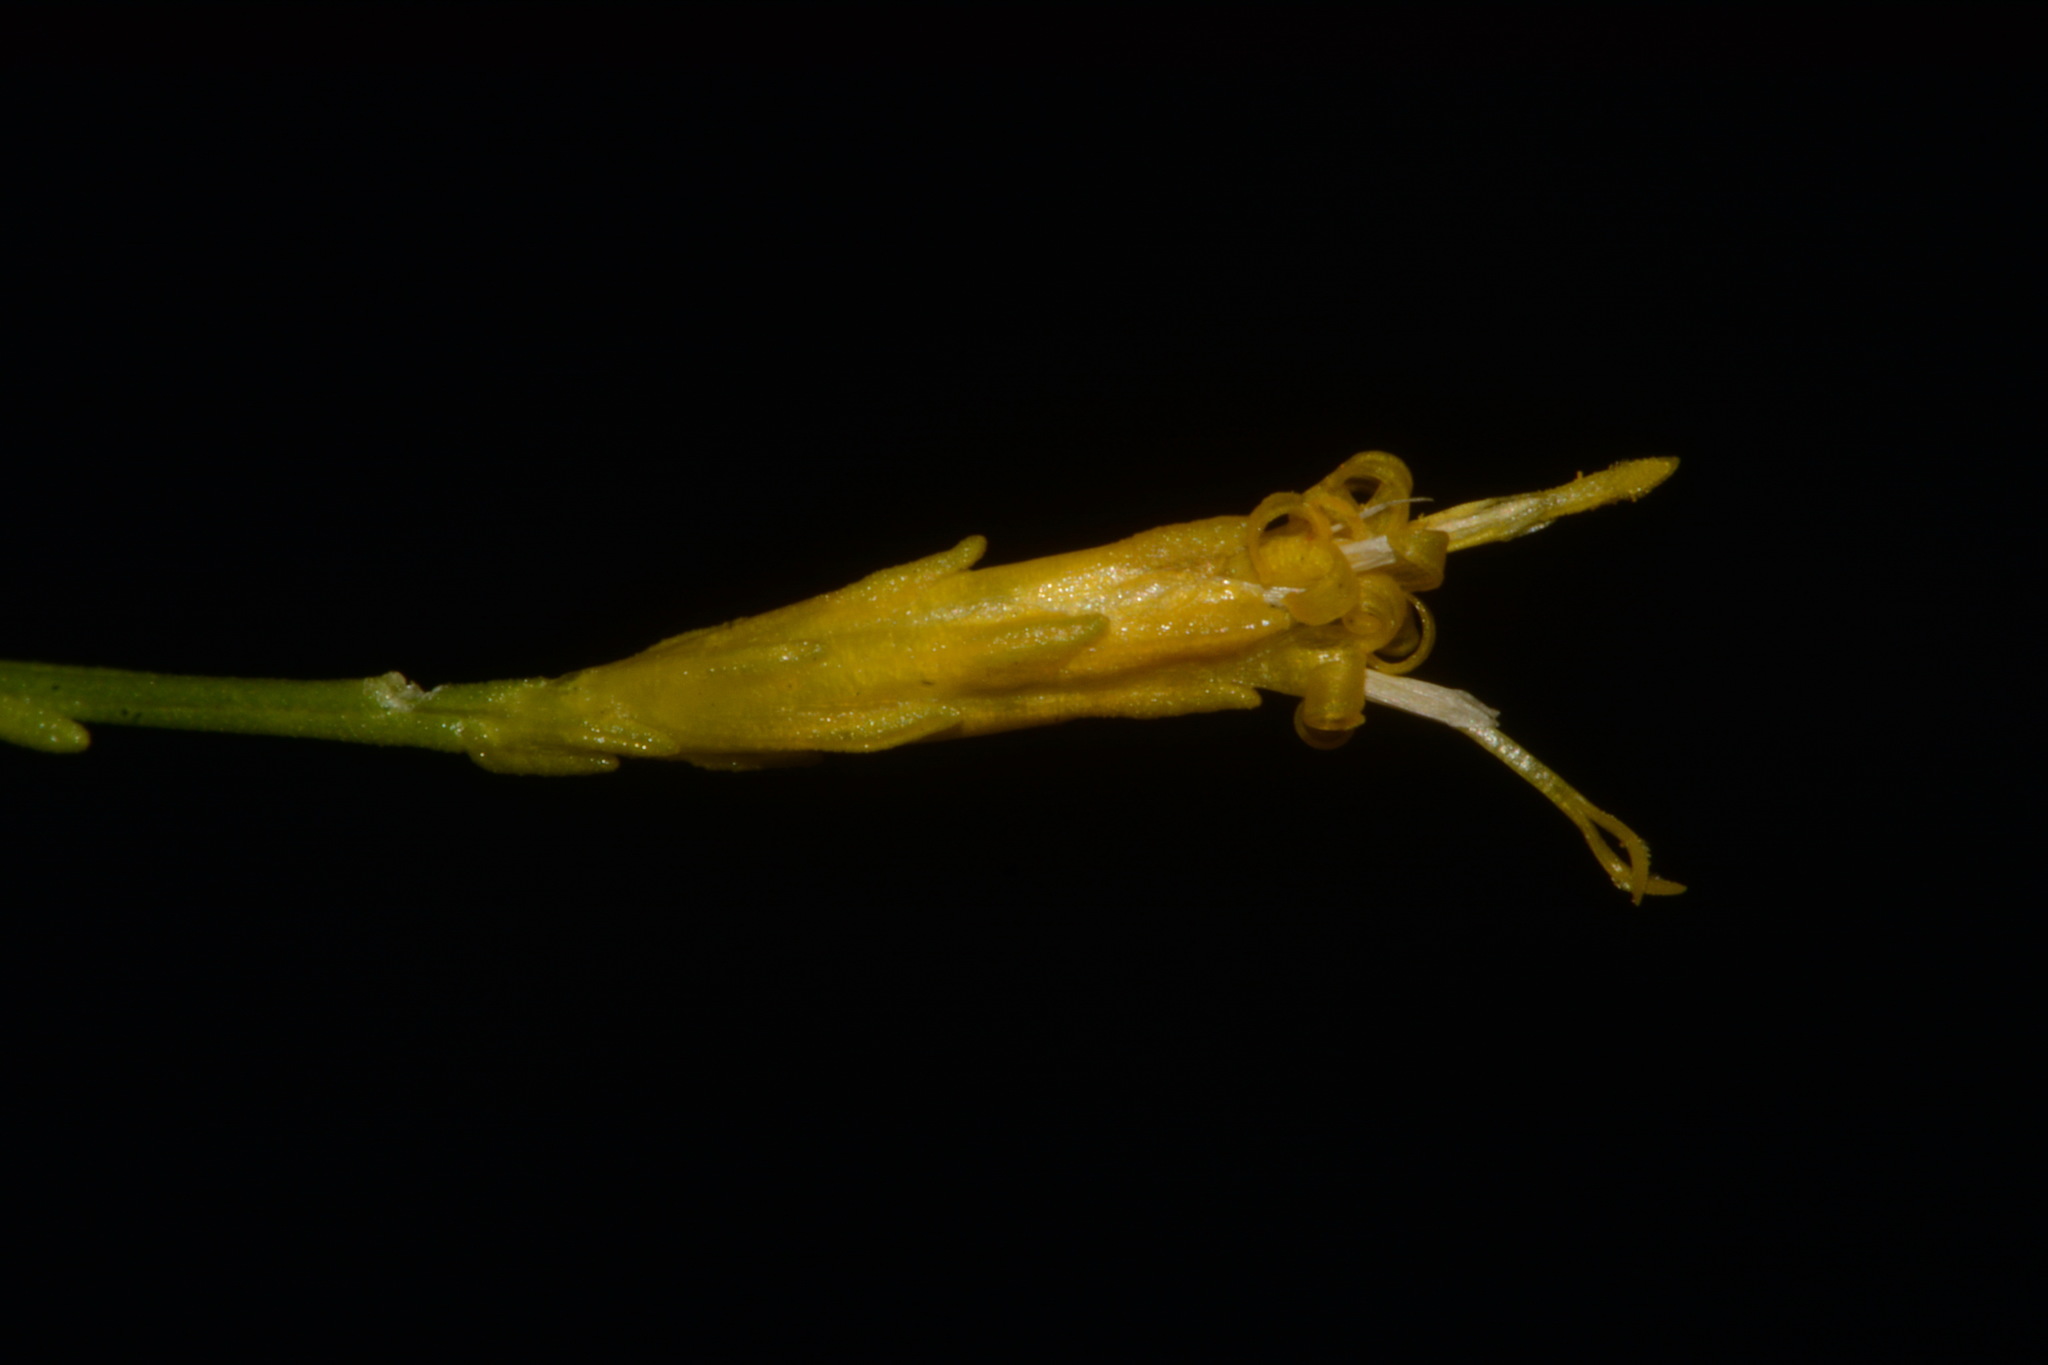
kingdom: Plantae
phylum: Tracheophyta
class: Magnoliopsida
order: Asterales
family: Asteraceae
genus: Bigelowia
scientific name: Bigelowia nuttallii
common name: Nuttall's rayless-goldenrod
